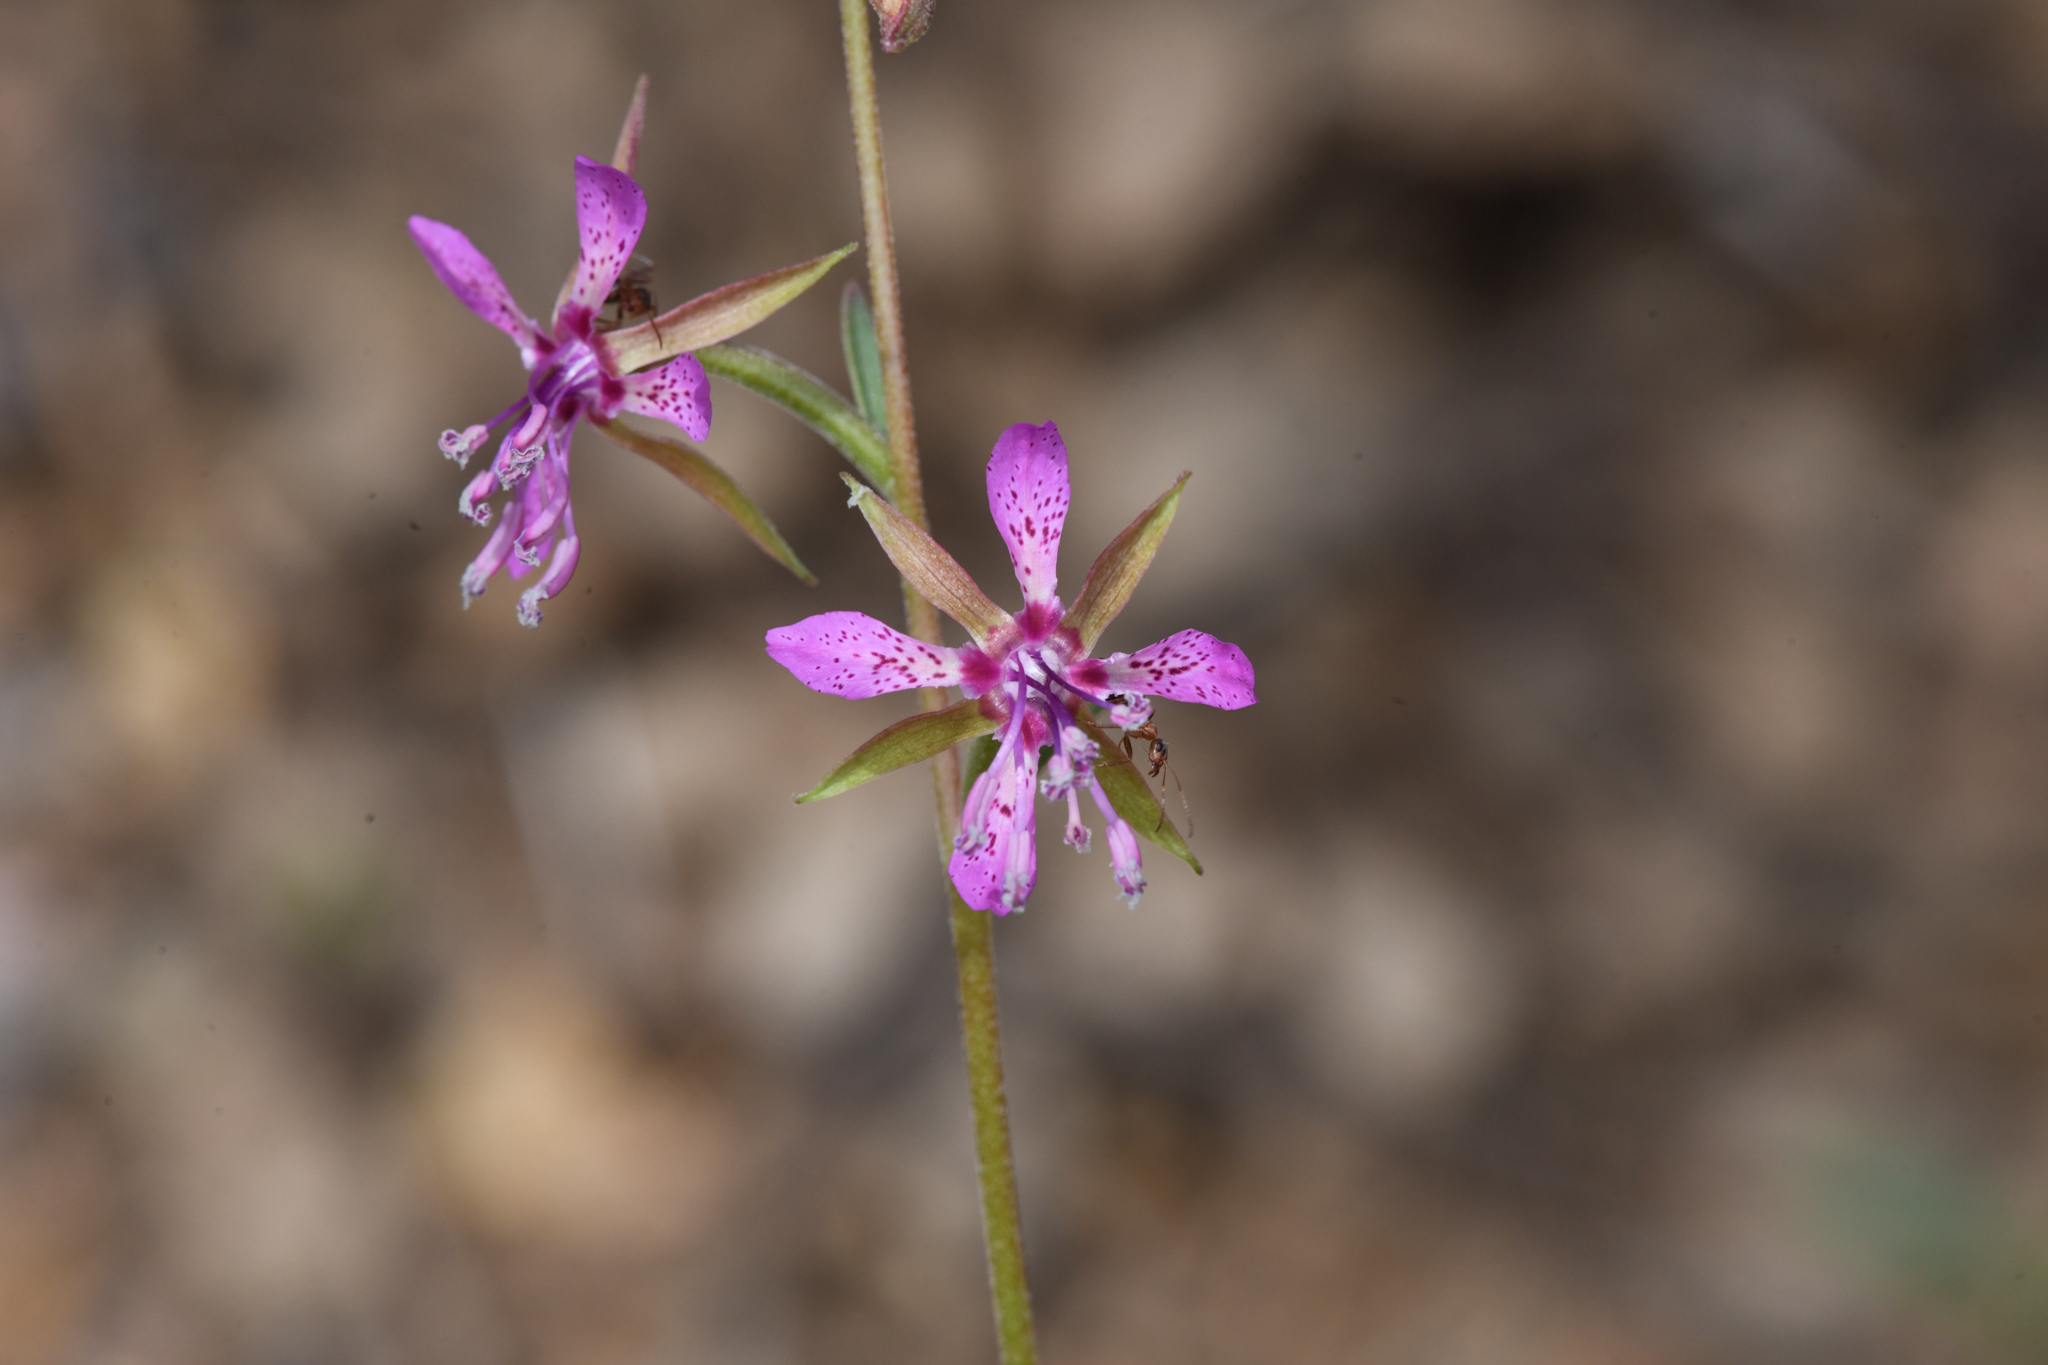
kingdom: Plantae
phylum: Tracheophyta
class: Magnoliopsida
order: Myrtales
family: Onagraceae
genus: Clarkia
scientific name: Clarkia rhomboidea
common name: Broadleaf clarkia
